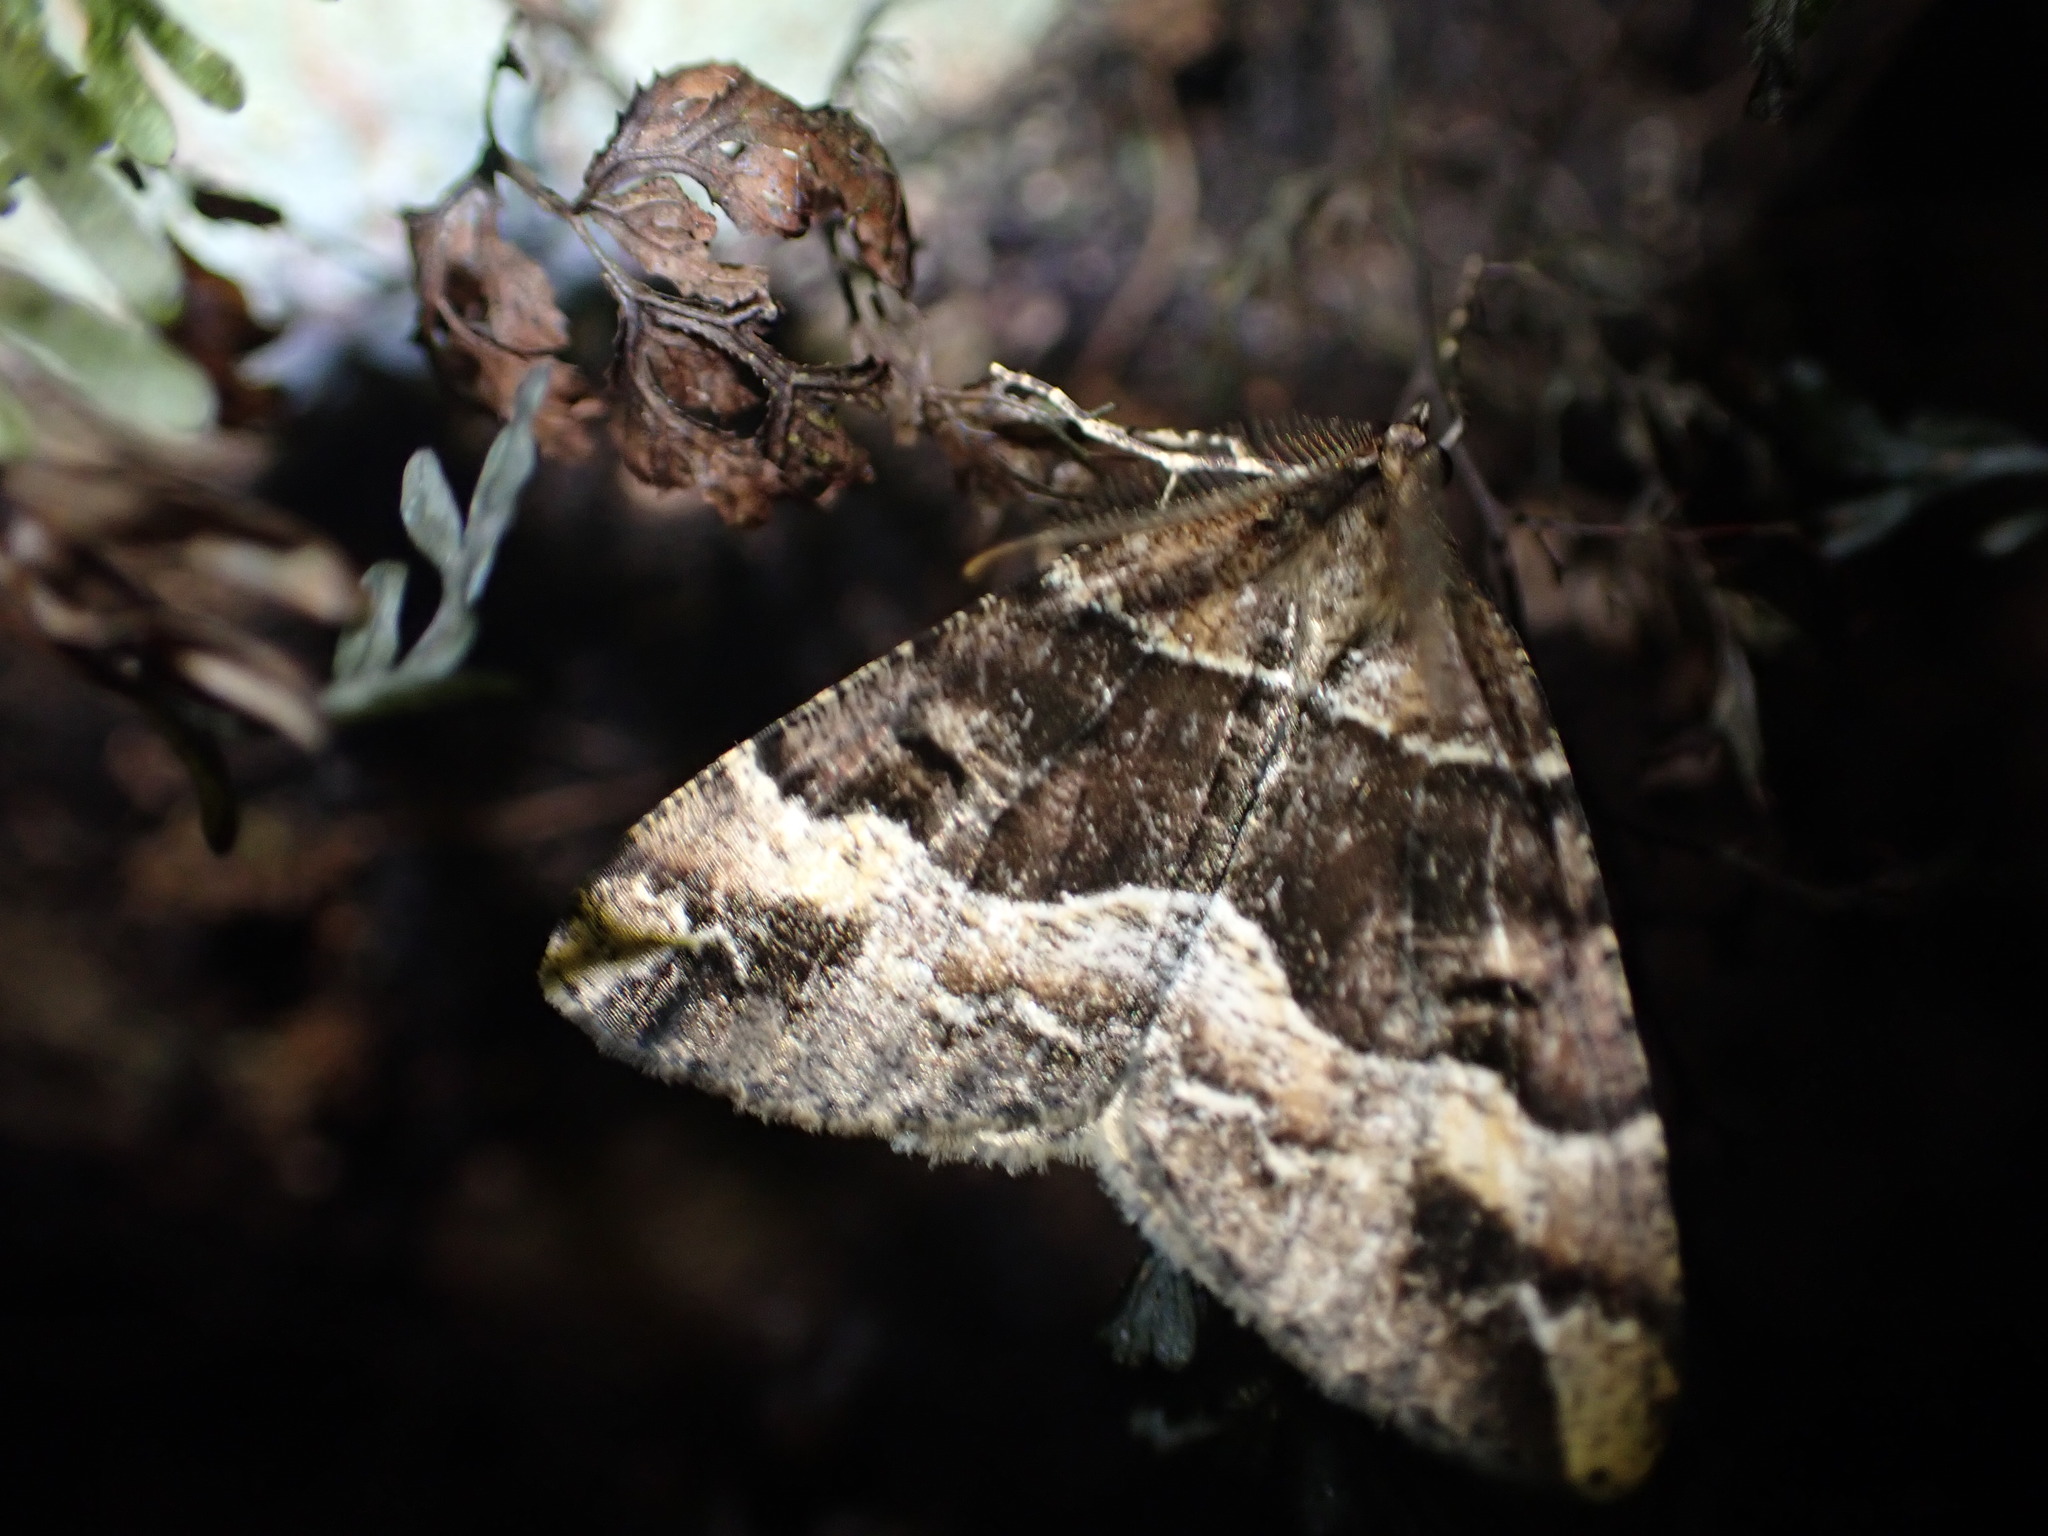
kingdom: Animalia
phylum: Arthropoda
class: Insecta
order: Lepidoptera
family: Geometridae
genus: Pseudocoremia
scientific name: Pseudocoremia fascialata
